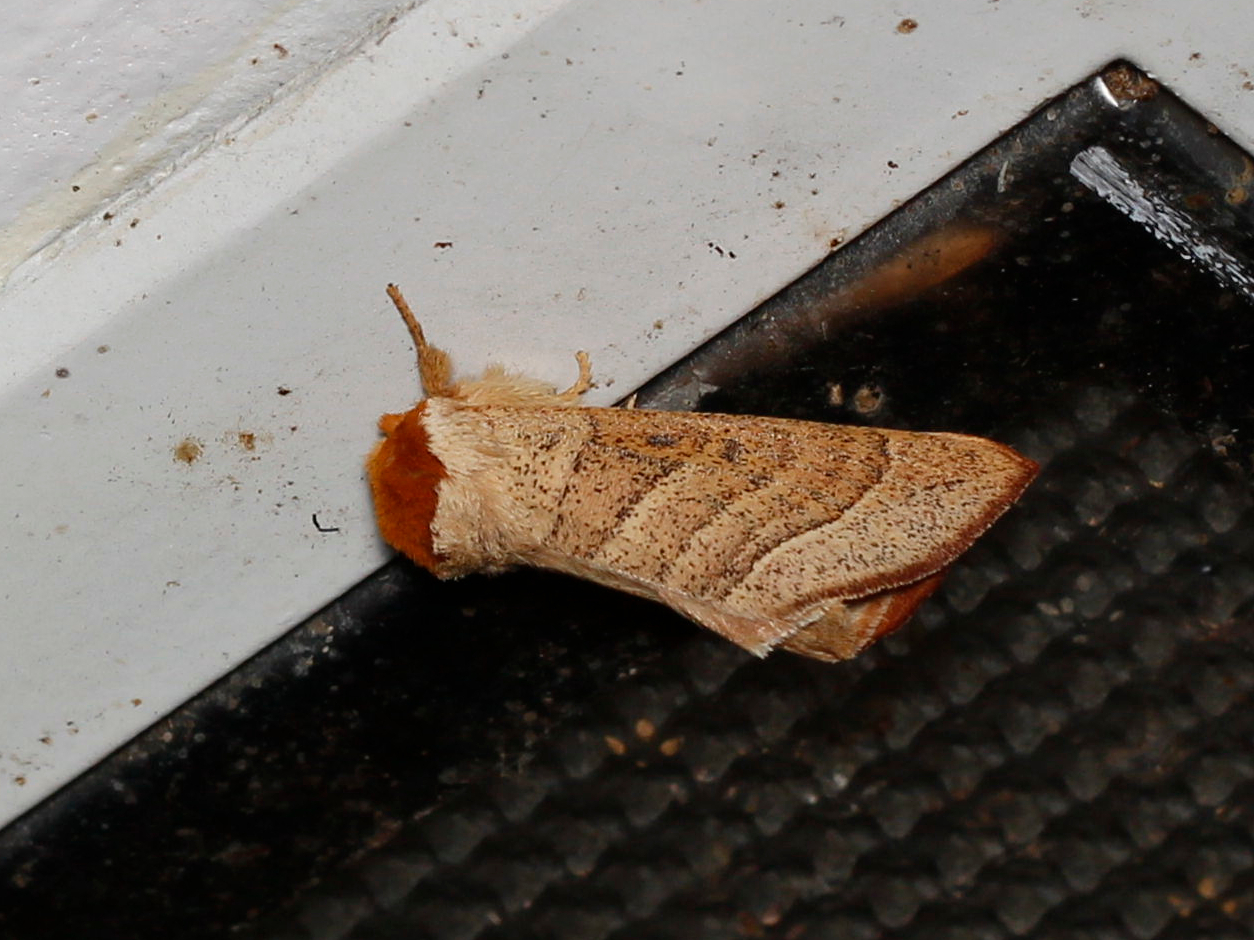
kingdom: Animalia
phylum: Arthropoda
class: Insecta
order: Lepidoptera
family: Notodontidae
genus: Datana
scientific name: Datana contracta
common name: Contracted datana
